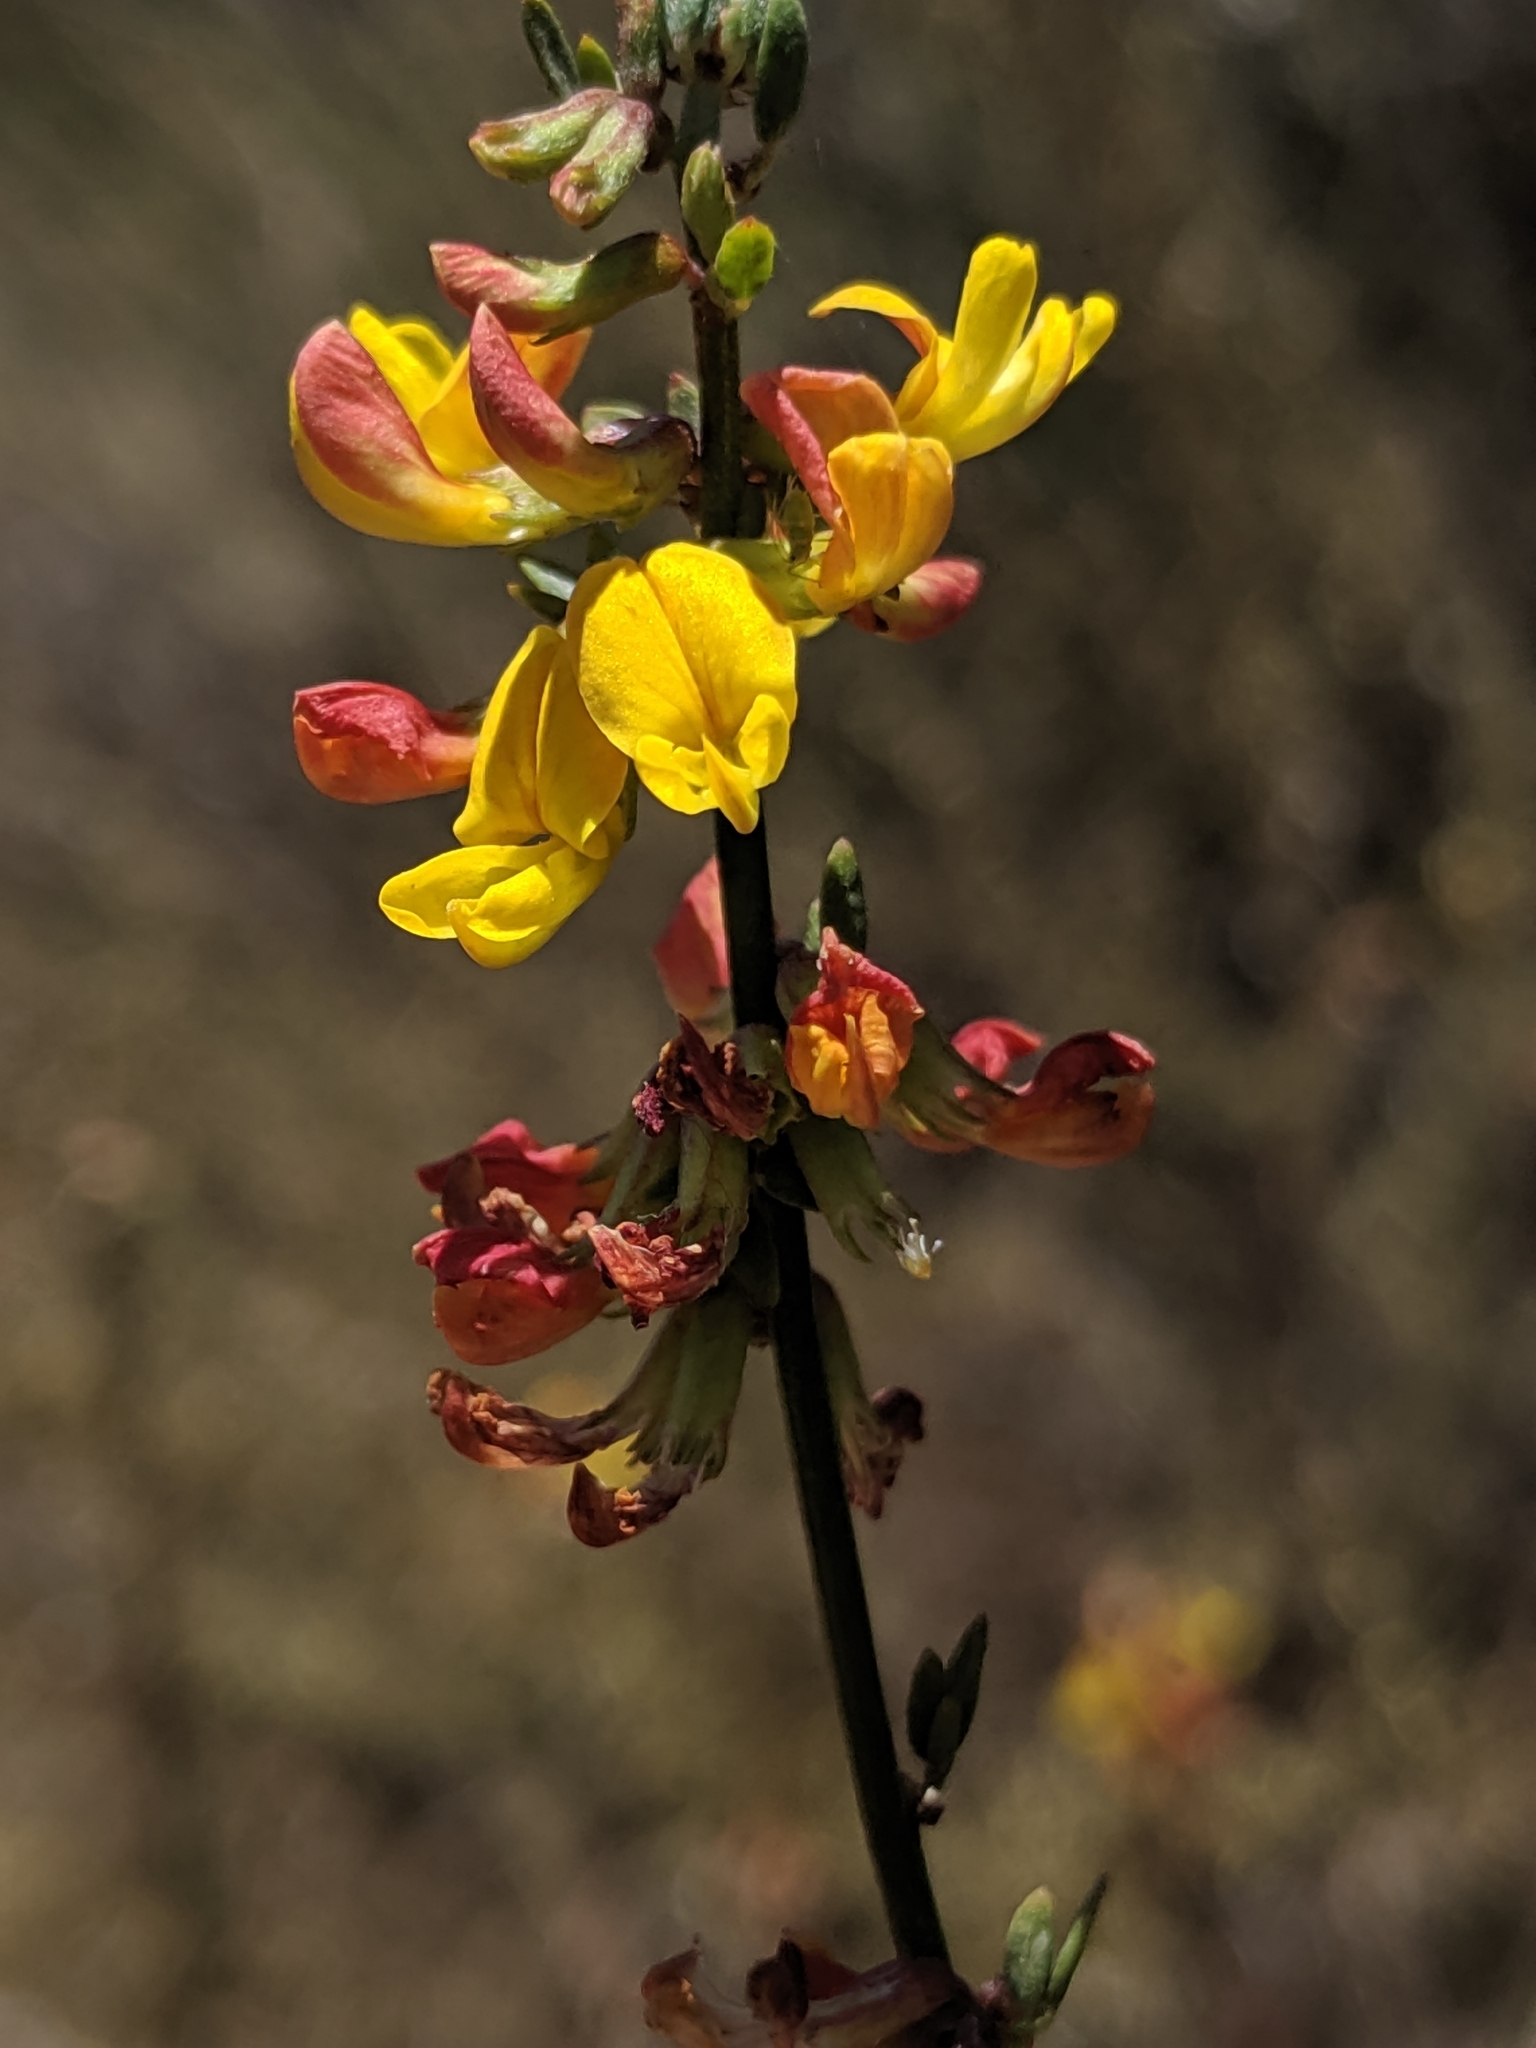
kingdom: Plantae
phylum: Tracheophyta
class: Magnoliopsida
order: Fabales
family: Fabaceae
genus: Acmispon
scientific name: Acmispon glaber
